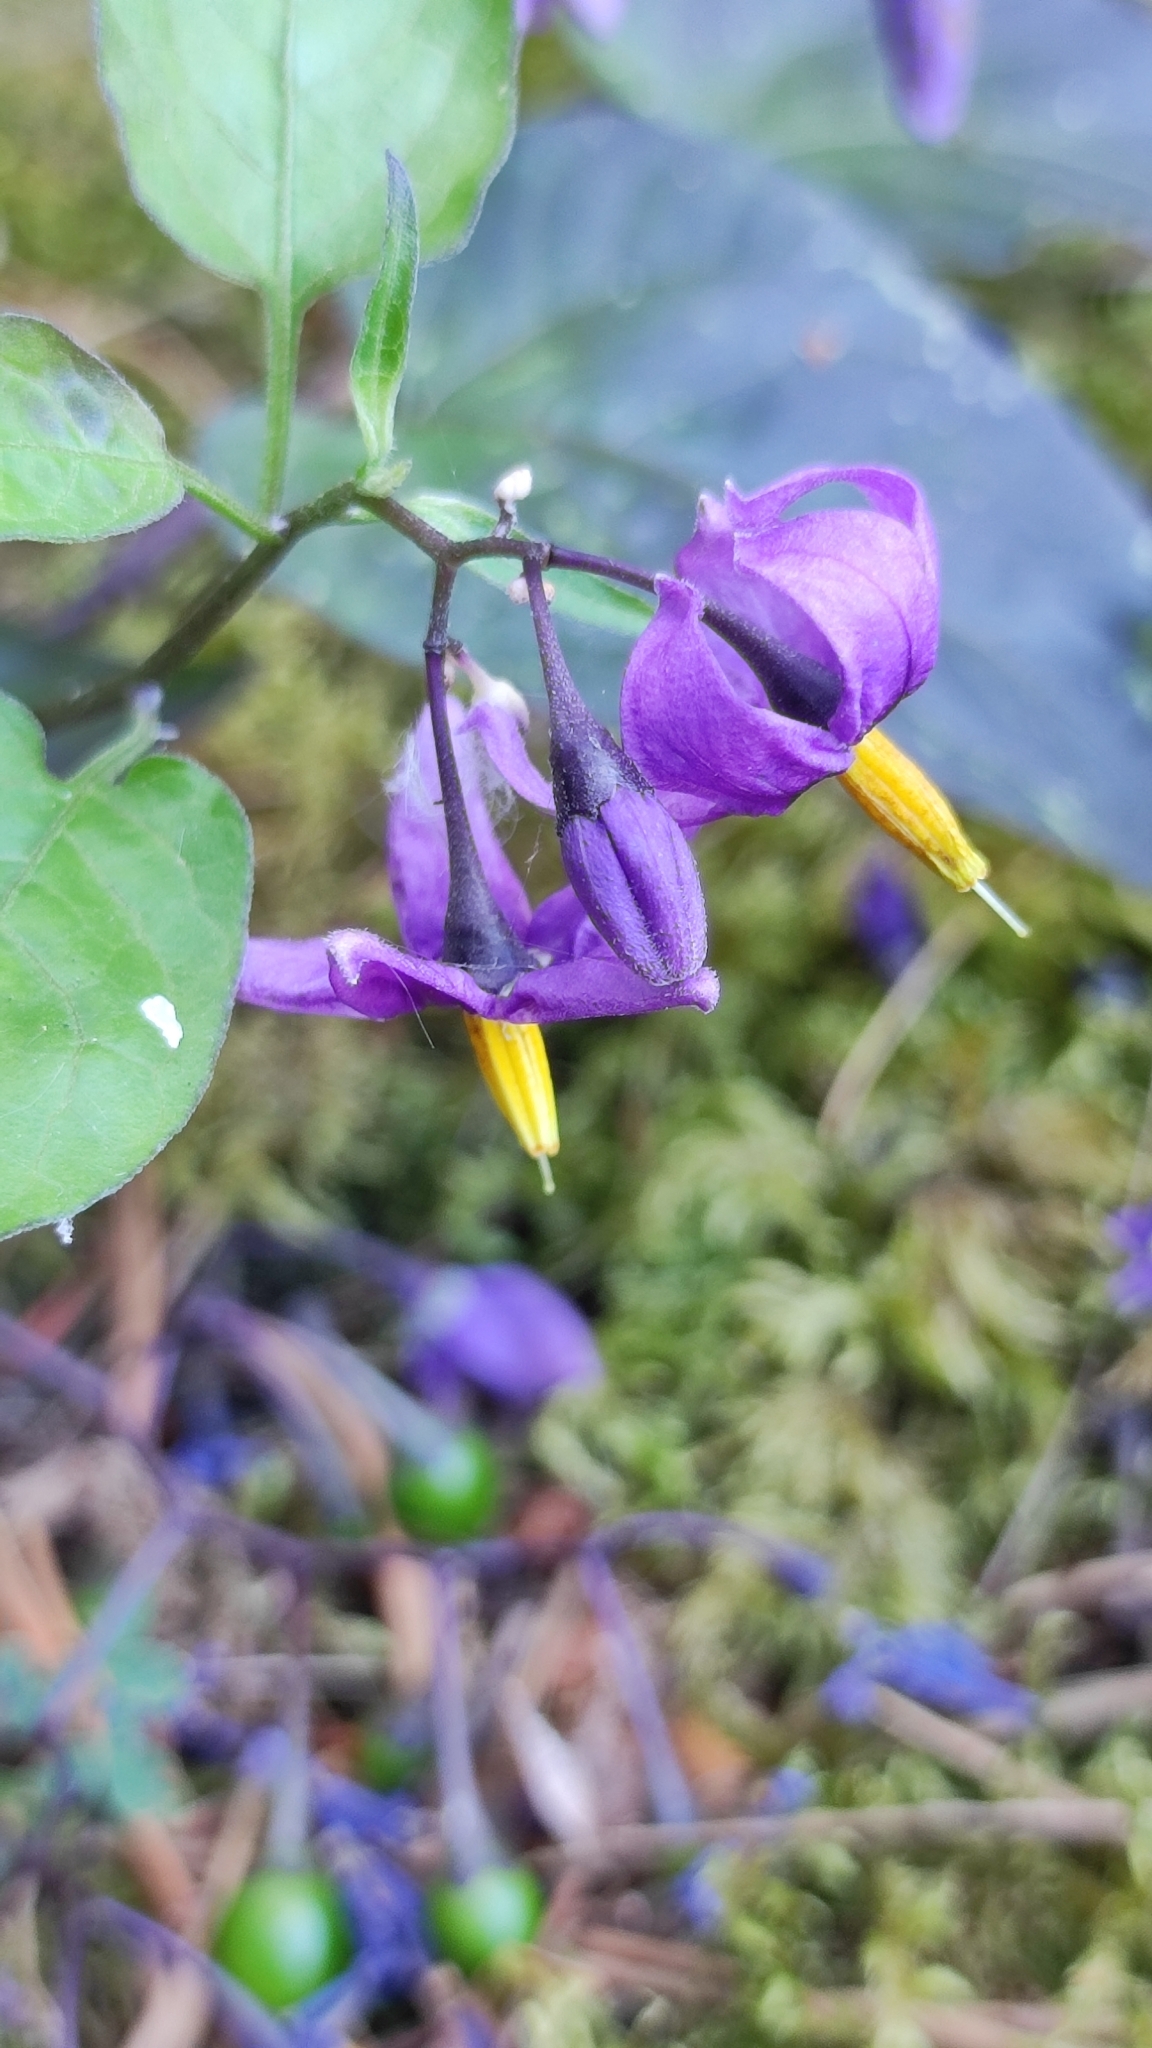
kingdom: Plantae
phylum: Tracheophyta
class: Magnoliopsida
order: Solanales
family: Solanaceae
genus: Solanum
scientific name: Solanum dulcamara
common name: Climbing nightshade
